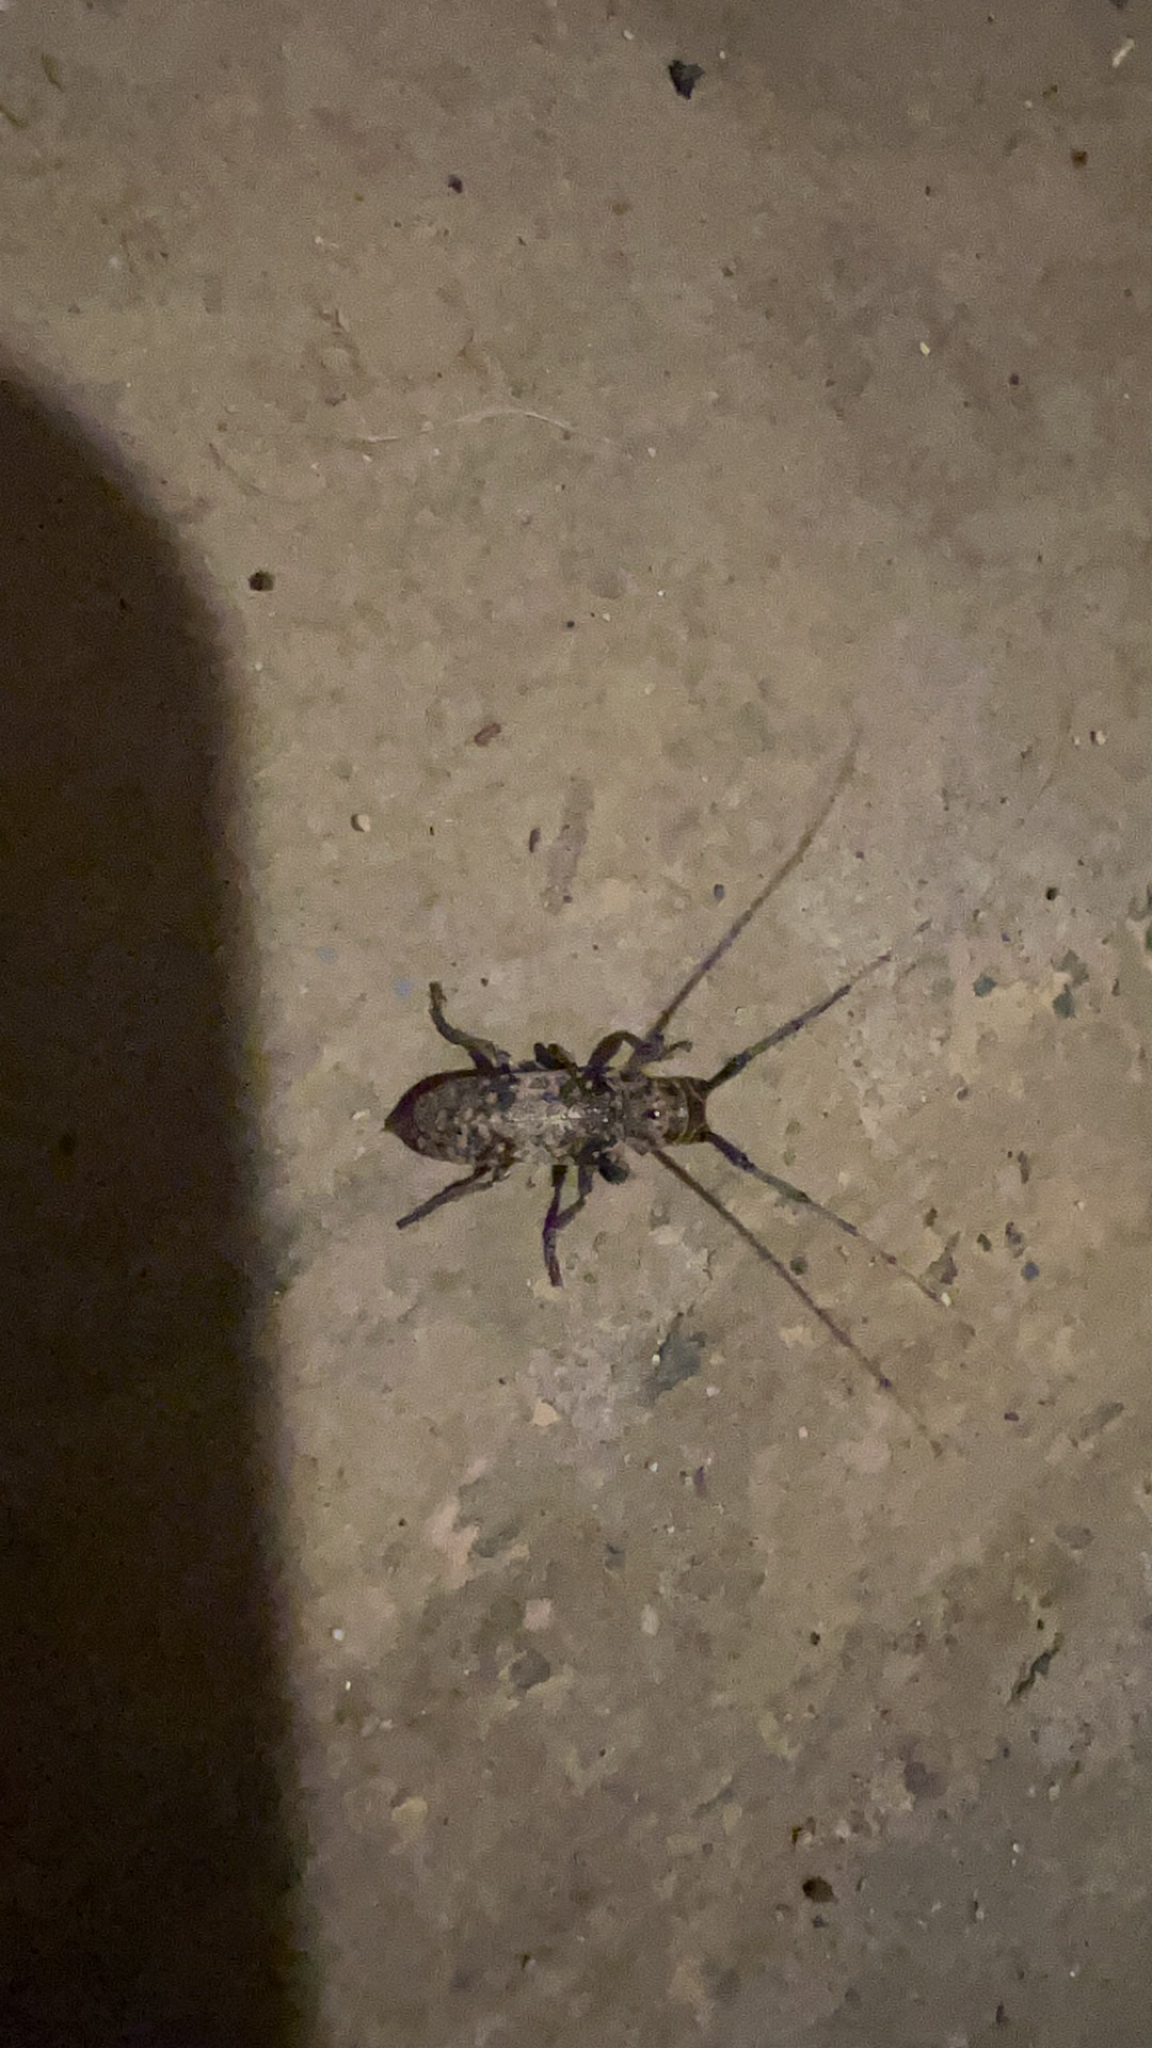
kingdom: Animalia
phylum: Arthropoda
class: Insecta
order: Coleoptera
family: Cerambycidae
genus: Oncideres
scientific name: Oncideres rhodosticta
